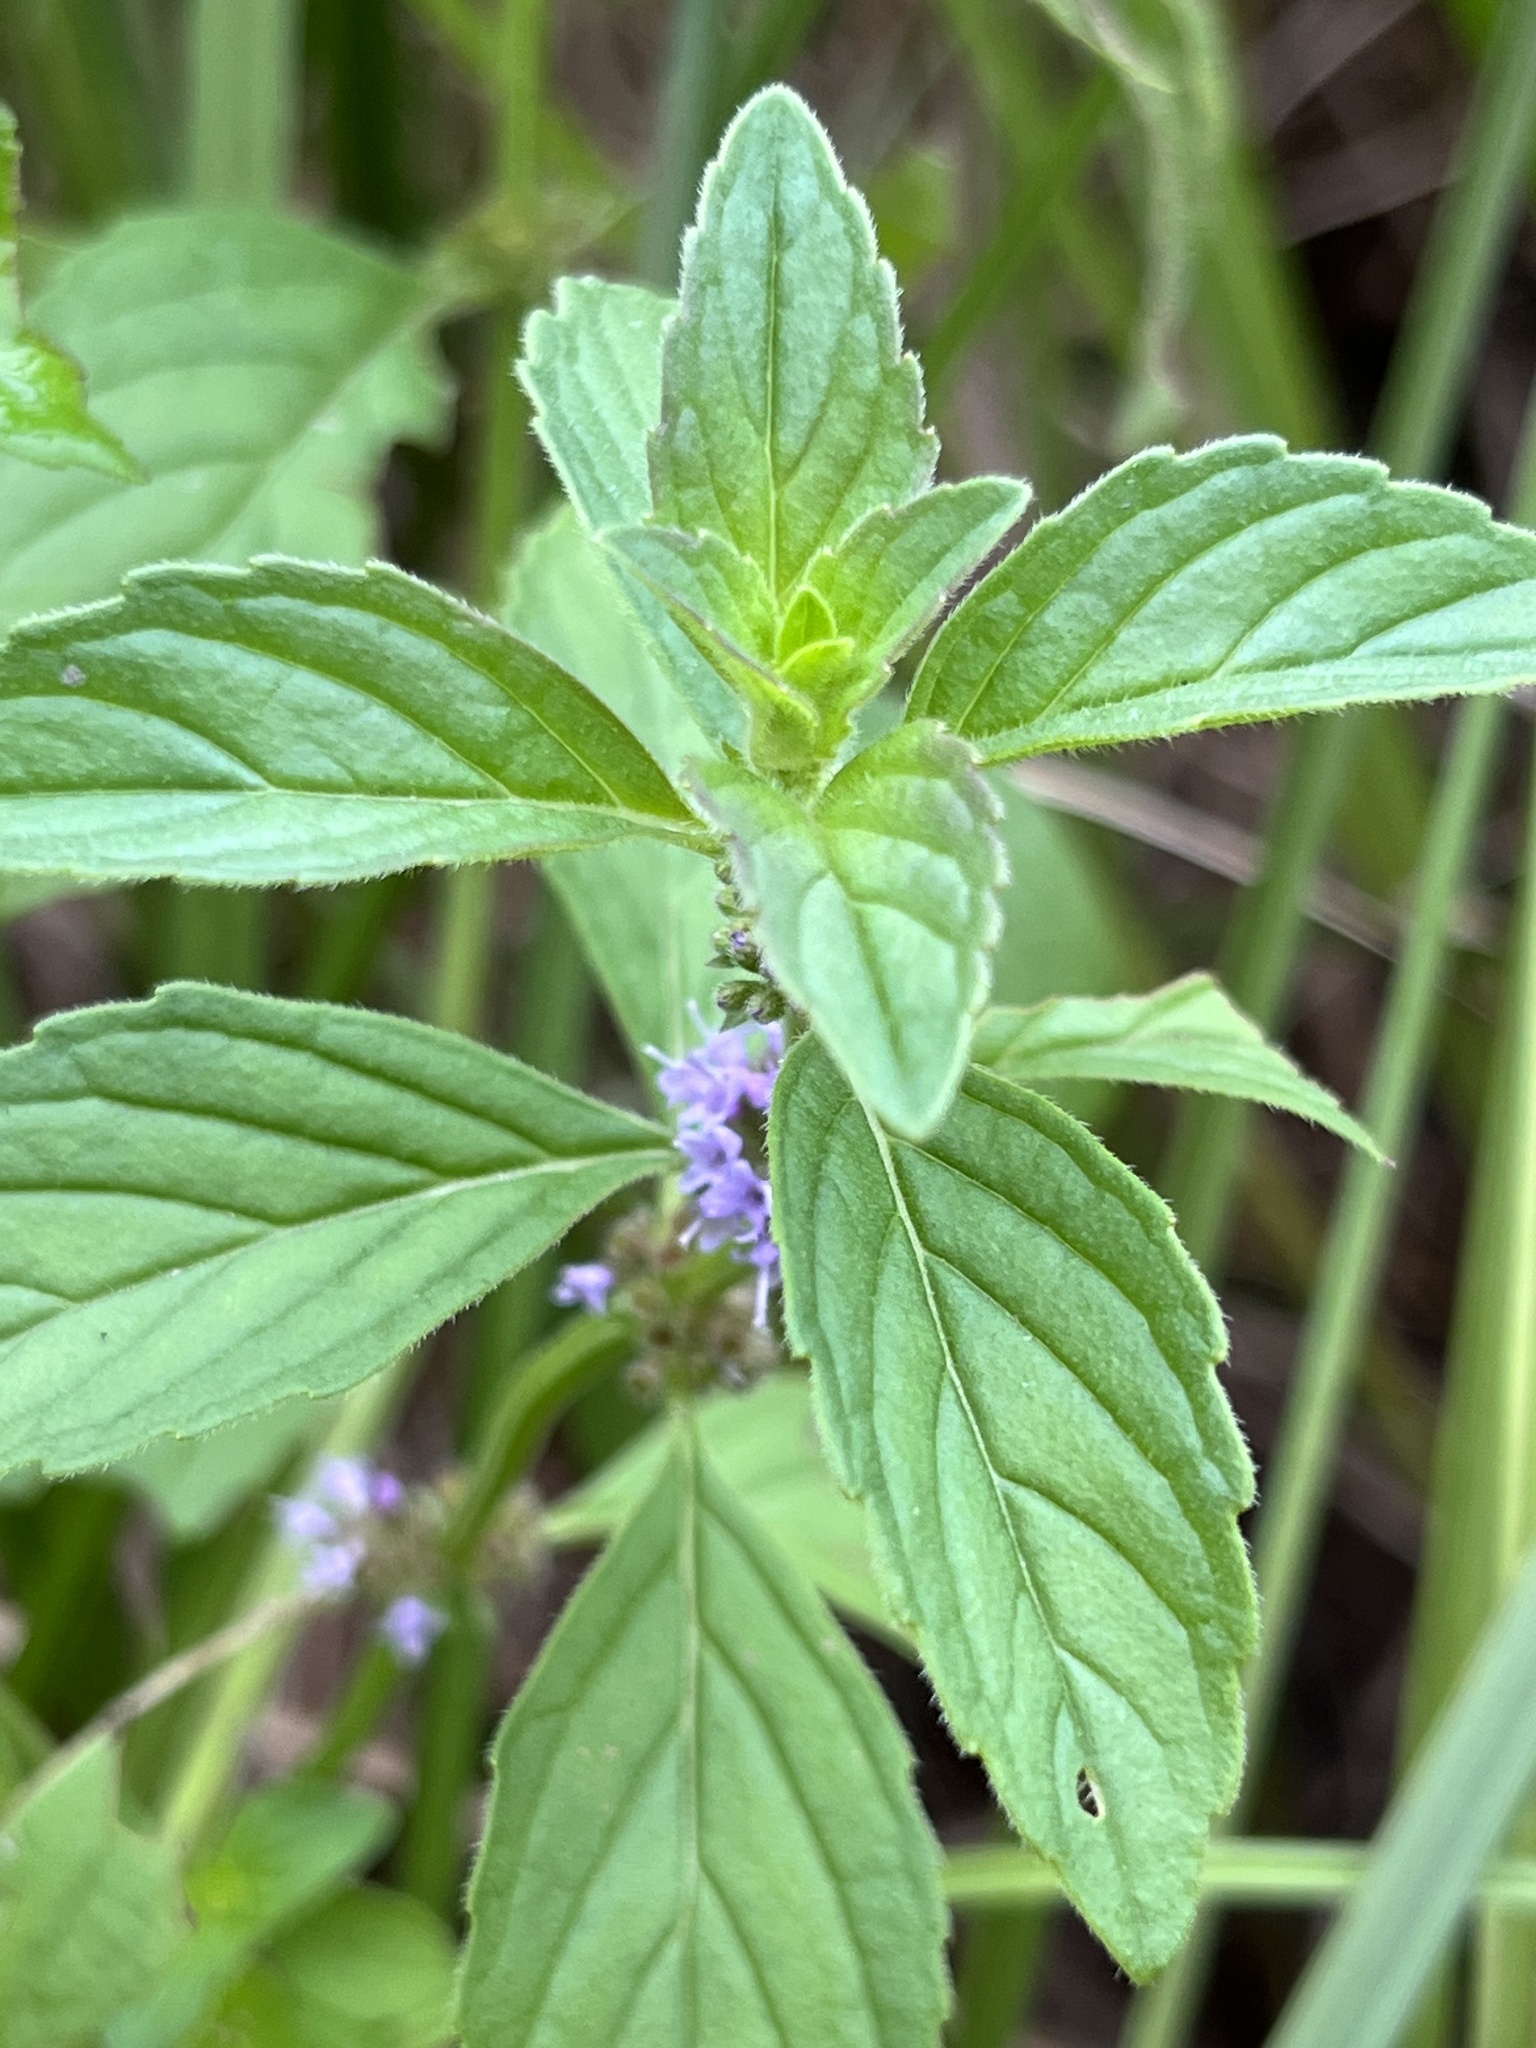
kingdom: Plantae
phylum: Tracheophyta
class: Magnoliopsida
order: Lamiales
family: Lamiaceae
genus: Mentha
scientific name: Mentha arvensis
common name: Corn mint
